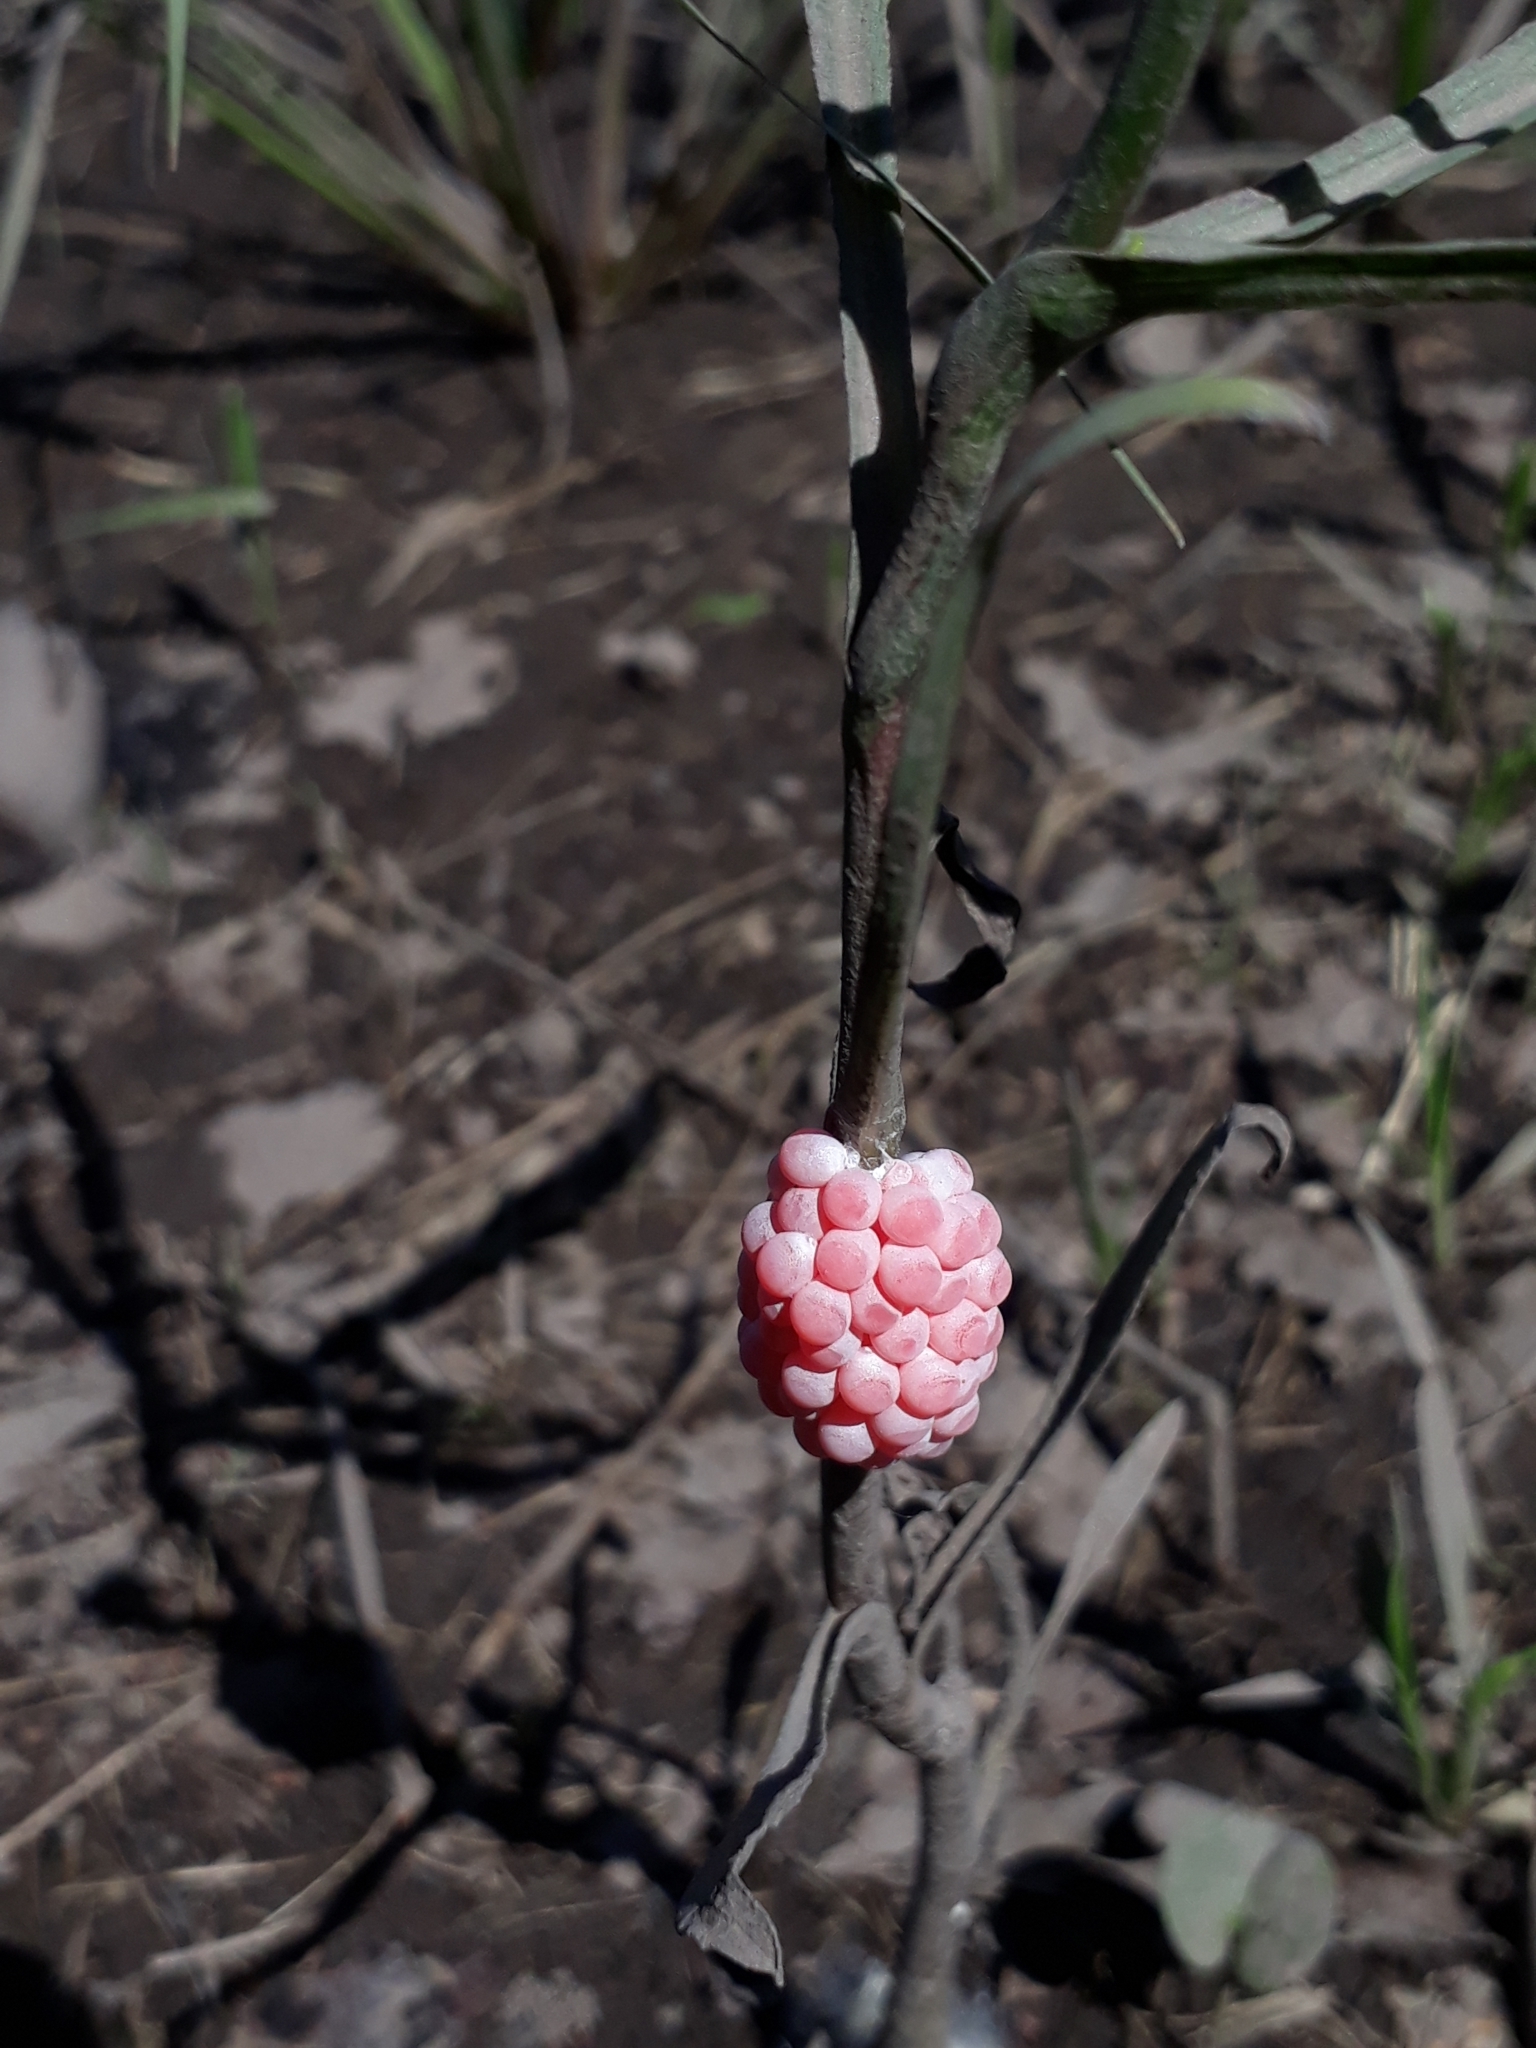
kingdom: Animalia
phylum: Mollusca
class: Gastropoda
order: Architaenioglossa
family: Ampullariidae
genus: Pomacea
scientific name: Pomacea maculata
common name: Giant applesnail
